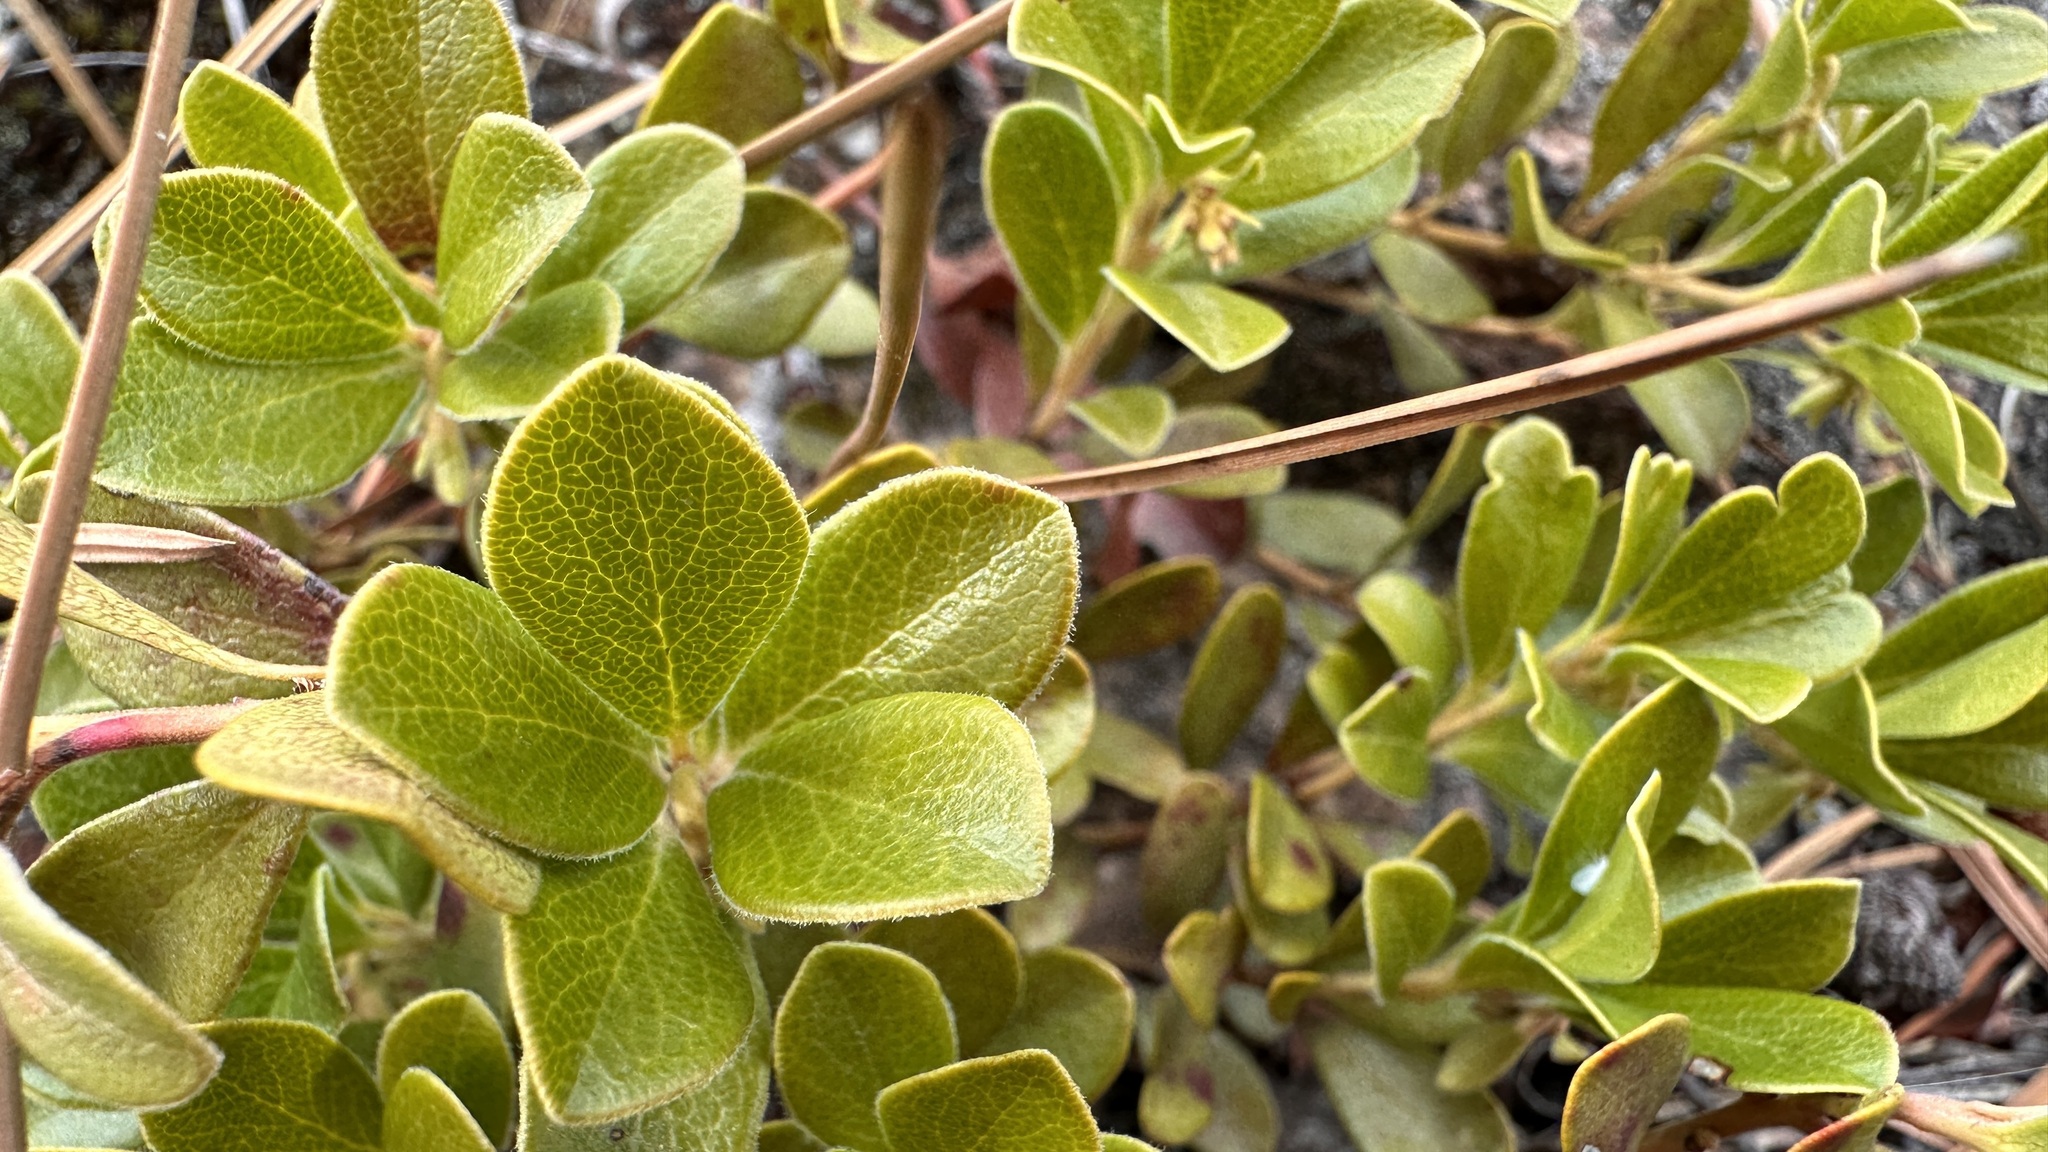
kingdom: Plantae
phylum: Tracheophyta
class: Magnoliopsida
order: Ericales
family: Ericaceae
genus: Arctostaphylos
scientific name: Arctostaphylos uva-ursi
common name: Bearberry
